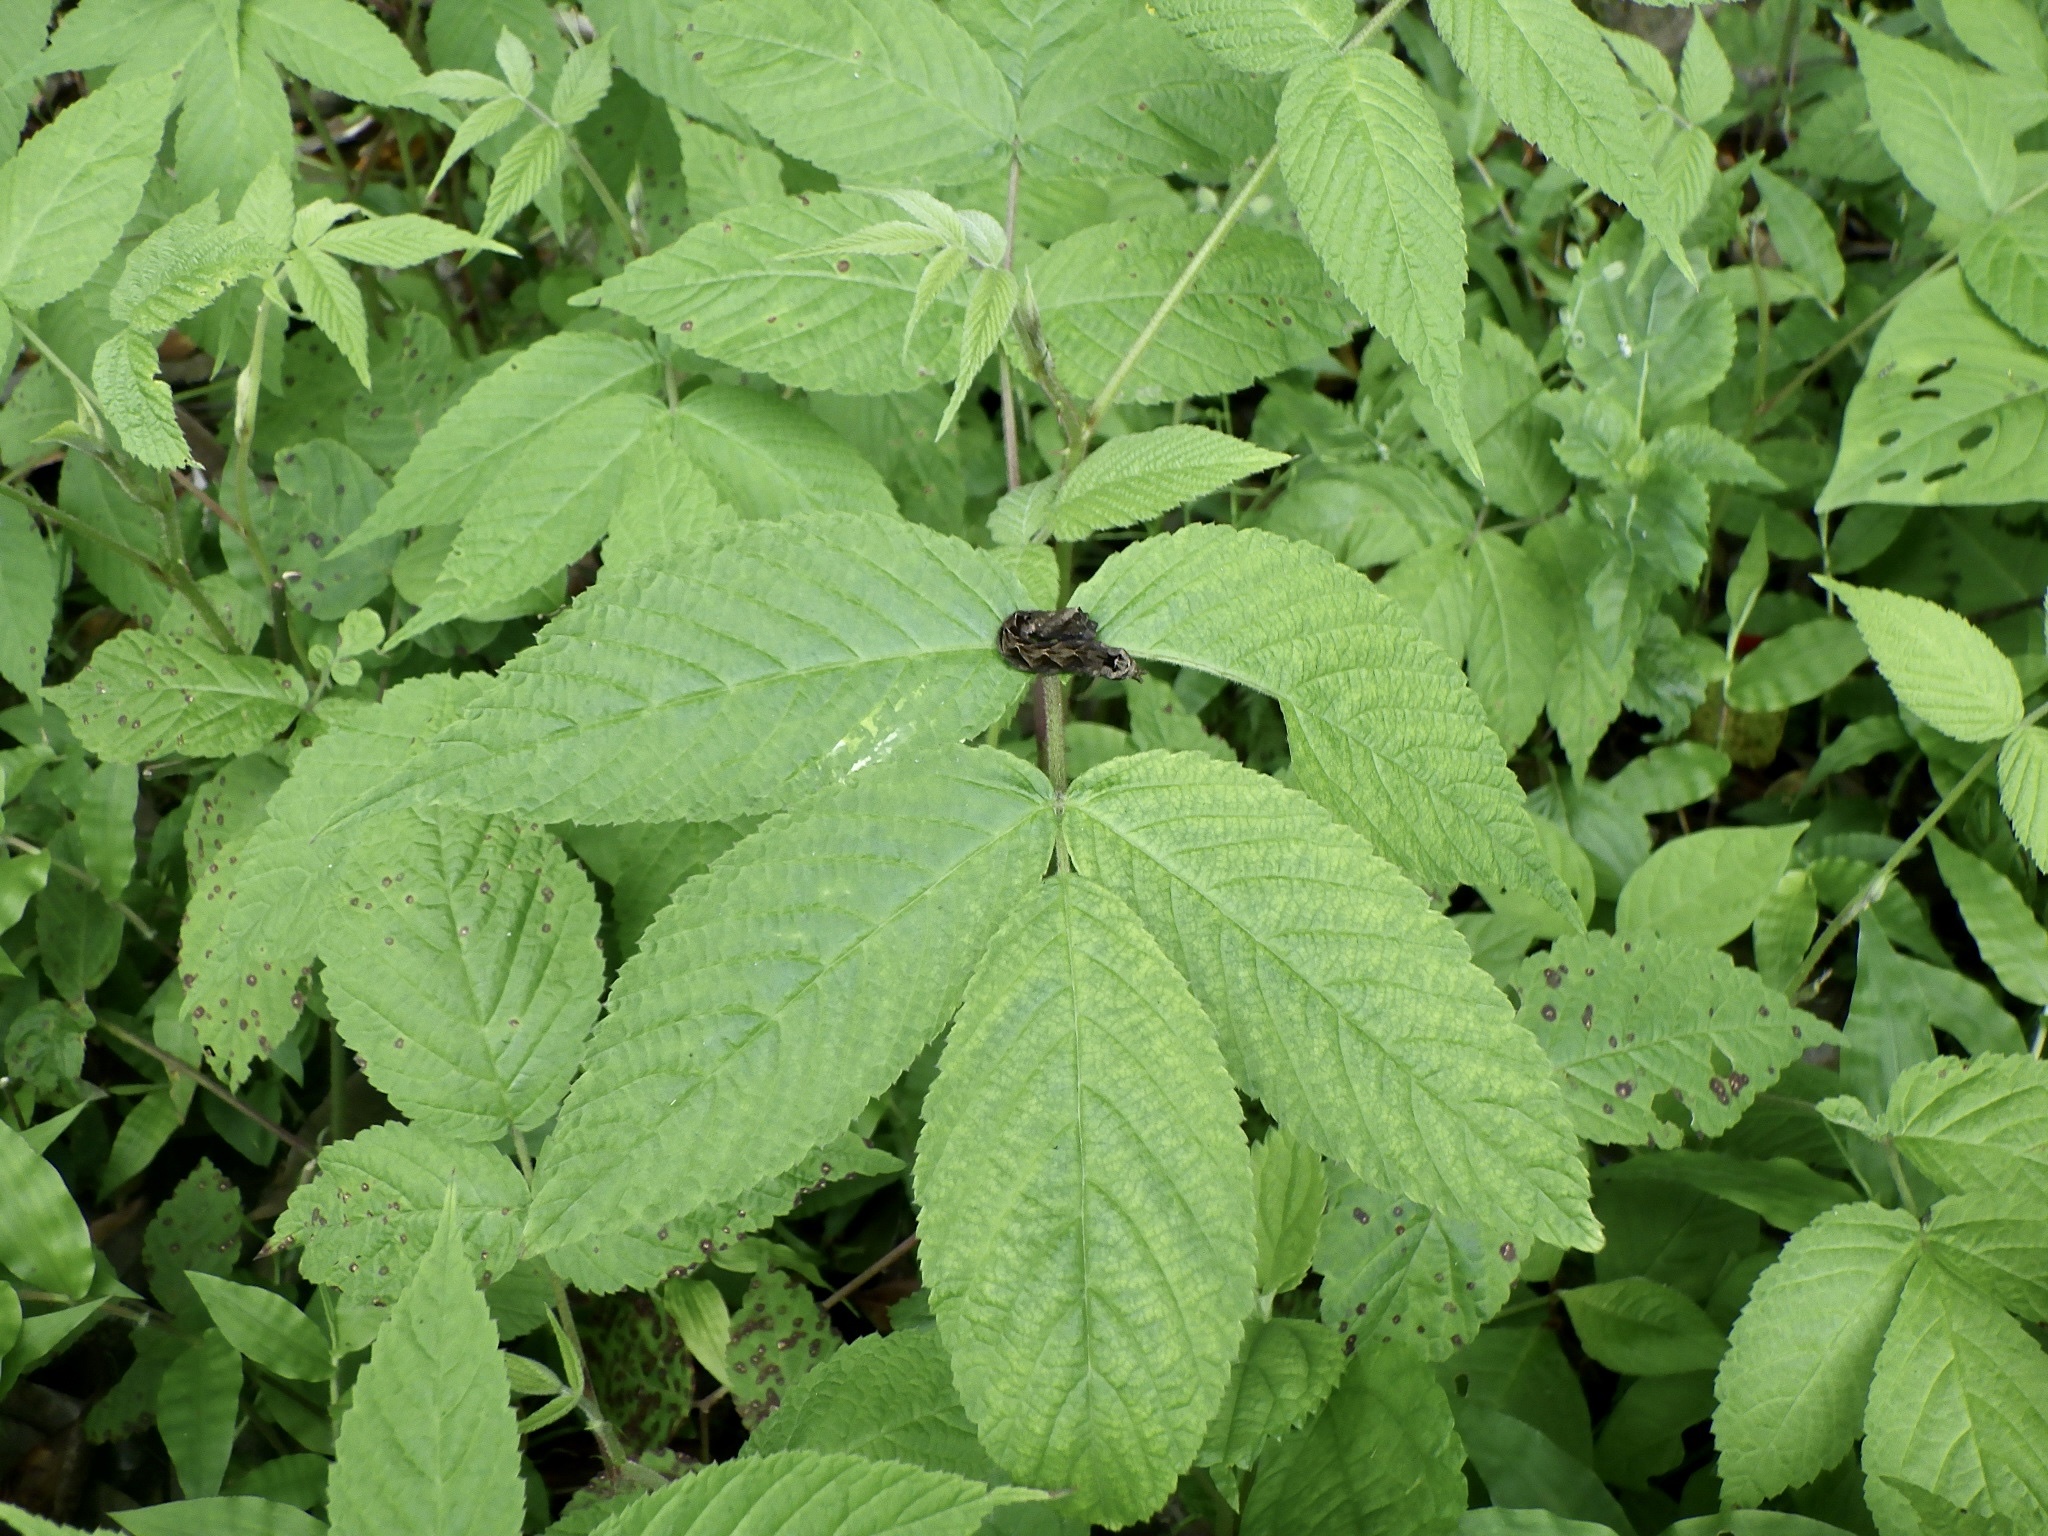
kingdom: Plantae
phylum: Tracheophyta
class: Magnoliopsida
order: Rosales
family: Rosaceae
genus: Rubus
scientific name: Rubus hirsutus
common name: Hirsute raspberry
